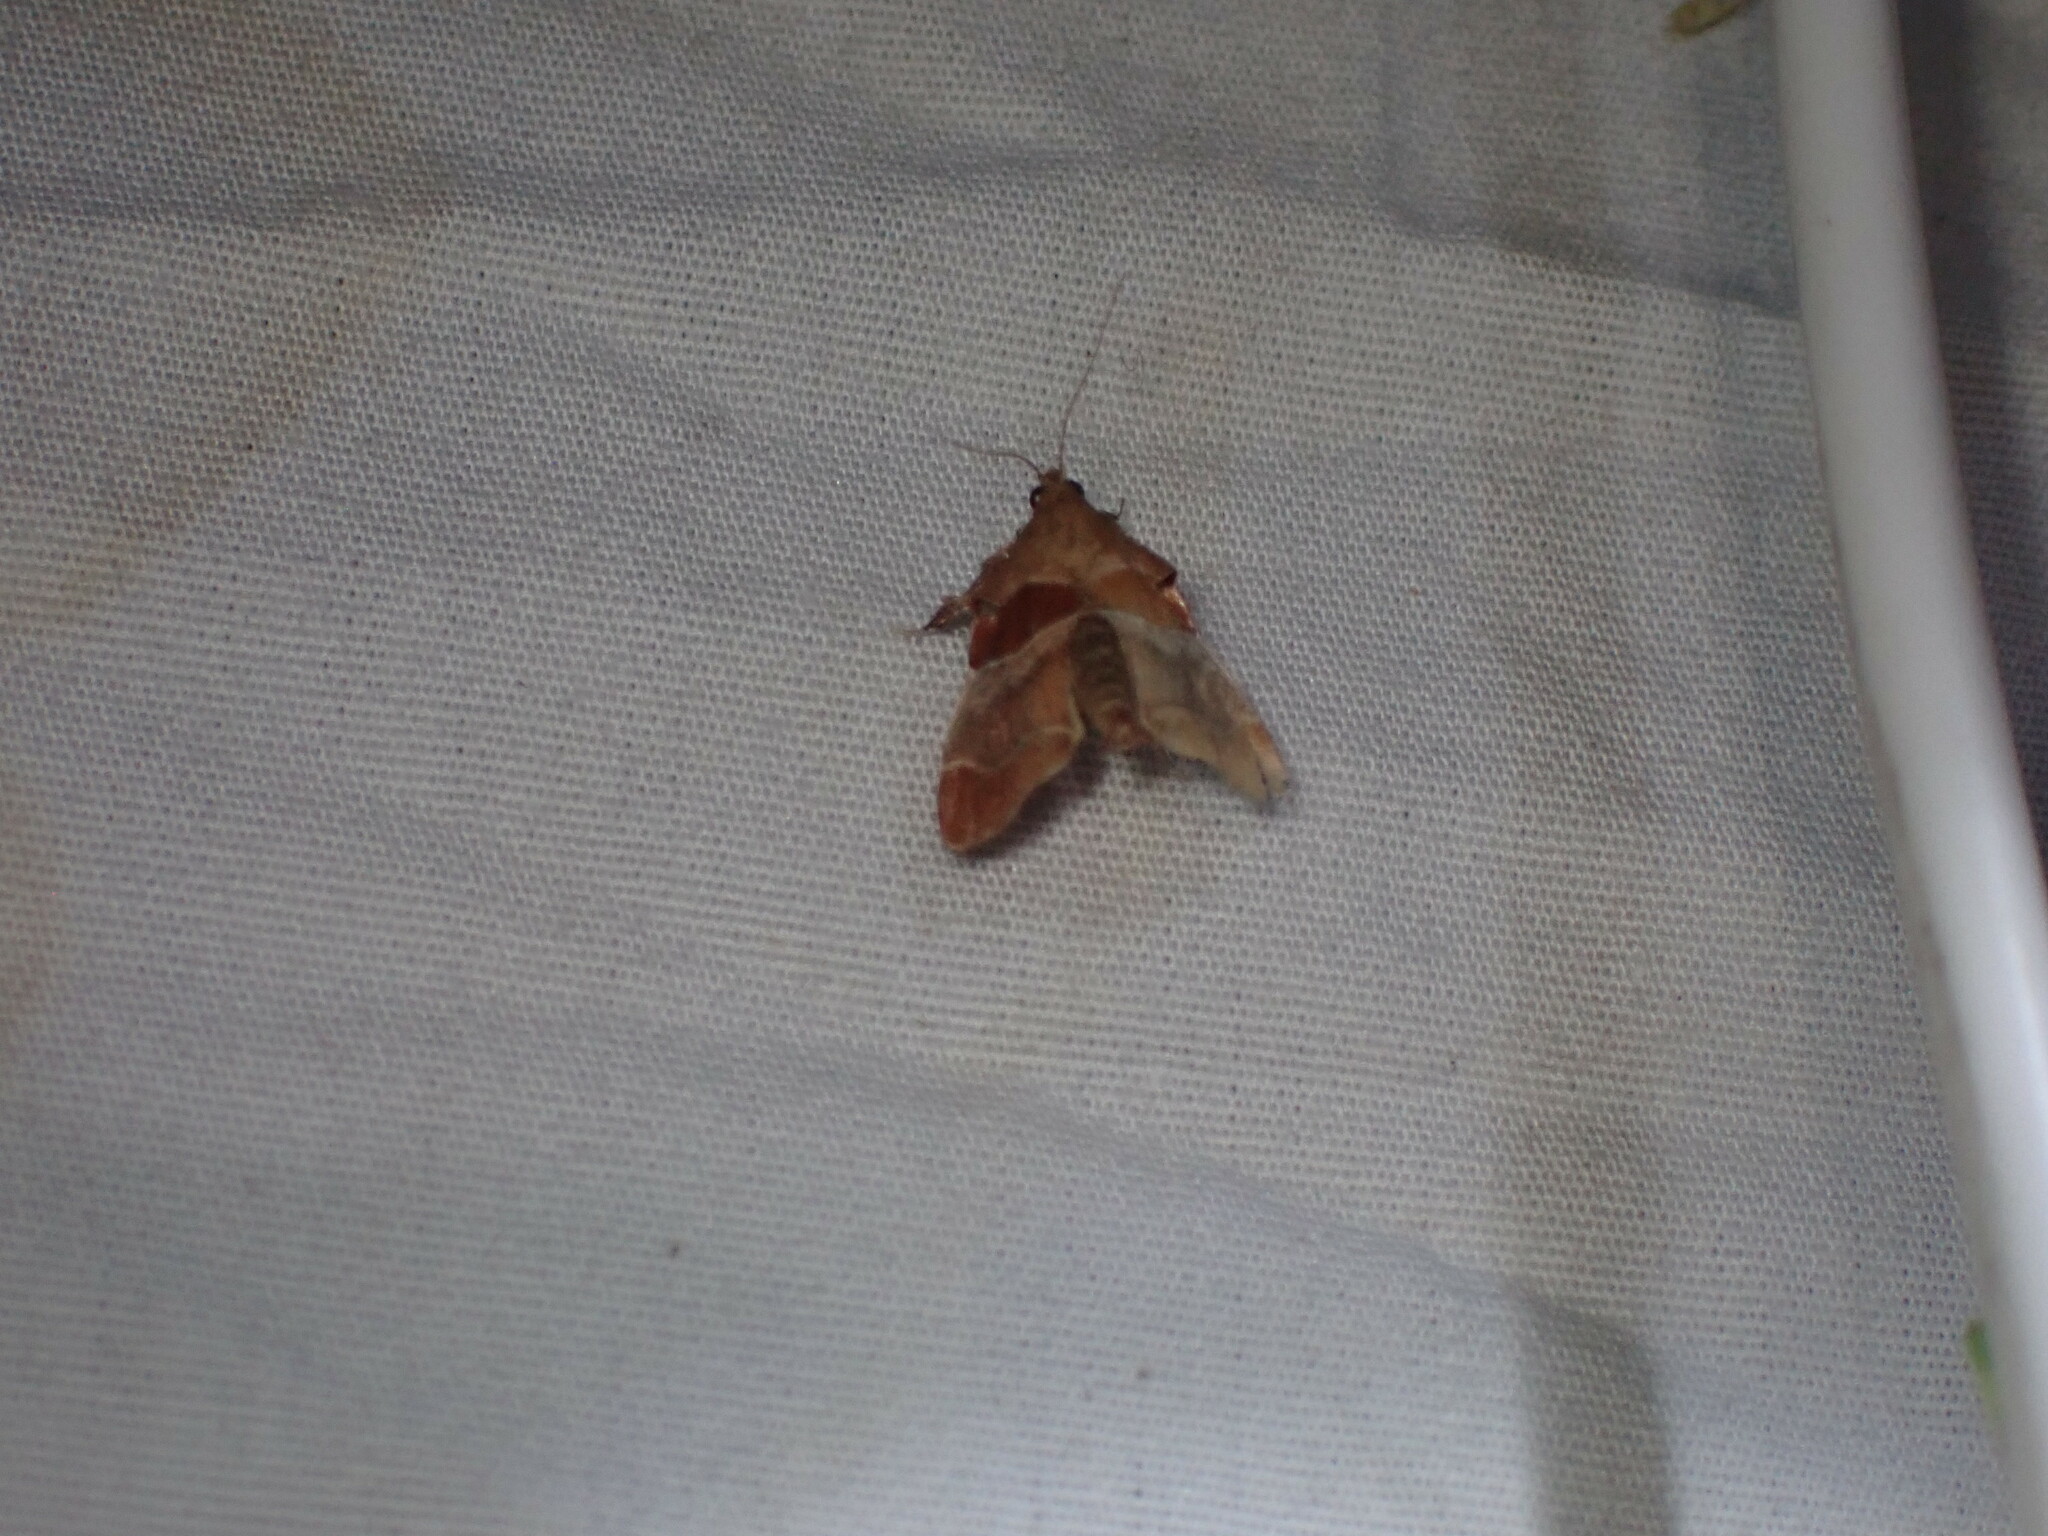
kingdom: Animalia
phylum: Arthropoda
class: Insecta
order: Lepidoptera
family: Pyralidae
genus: Tosale
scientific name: Tosale oviplagalis
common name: Dimorphic tosale moth
